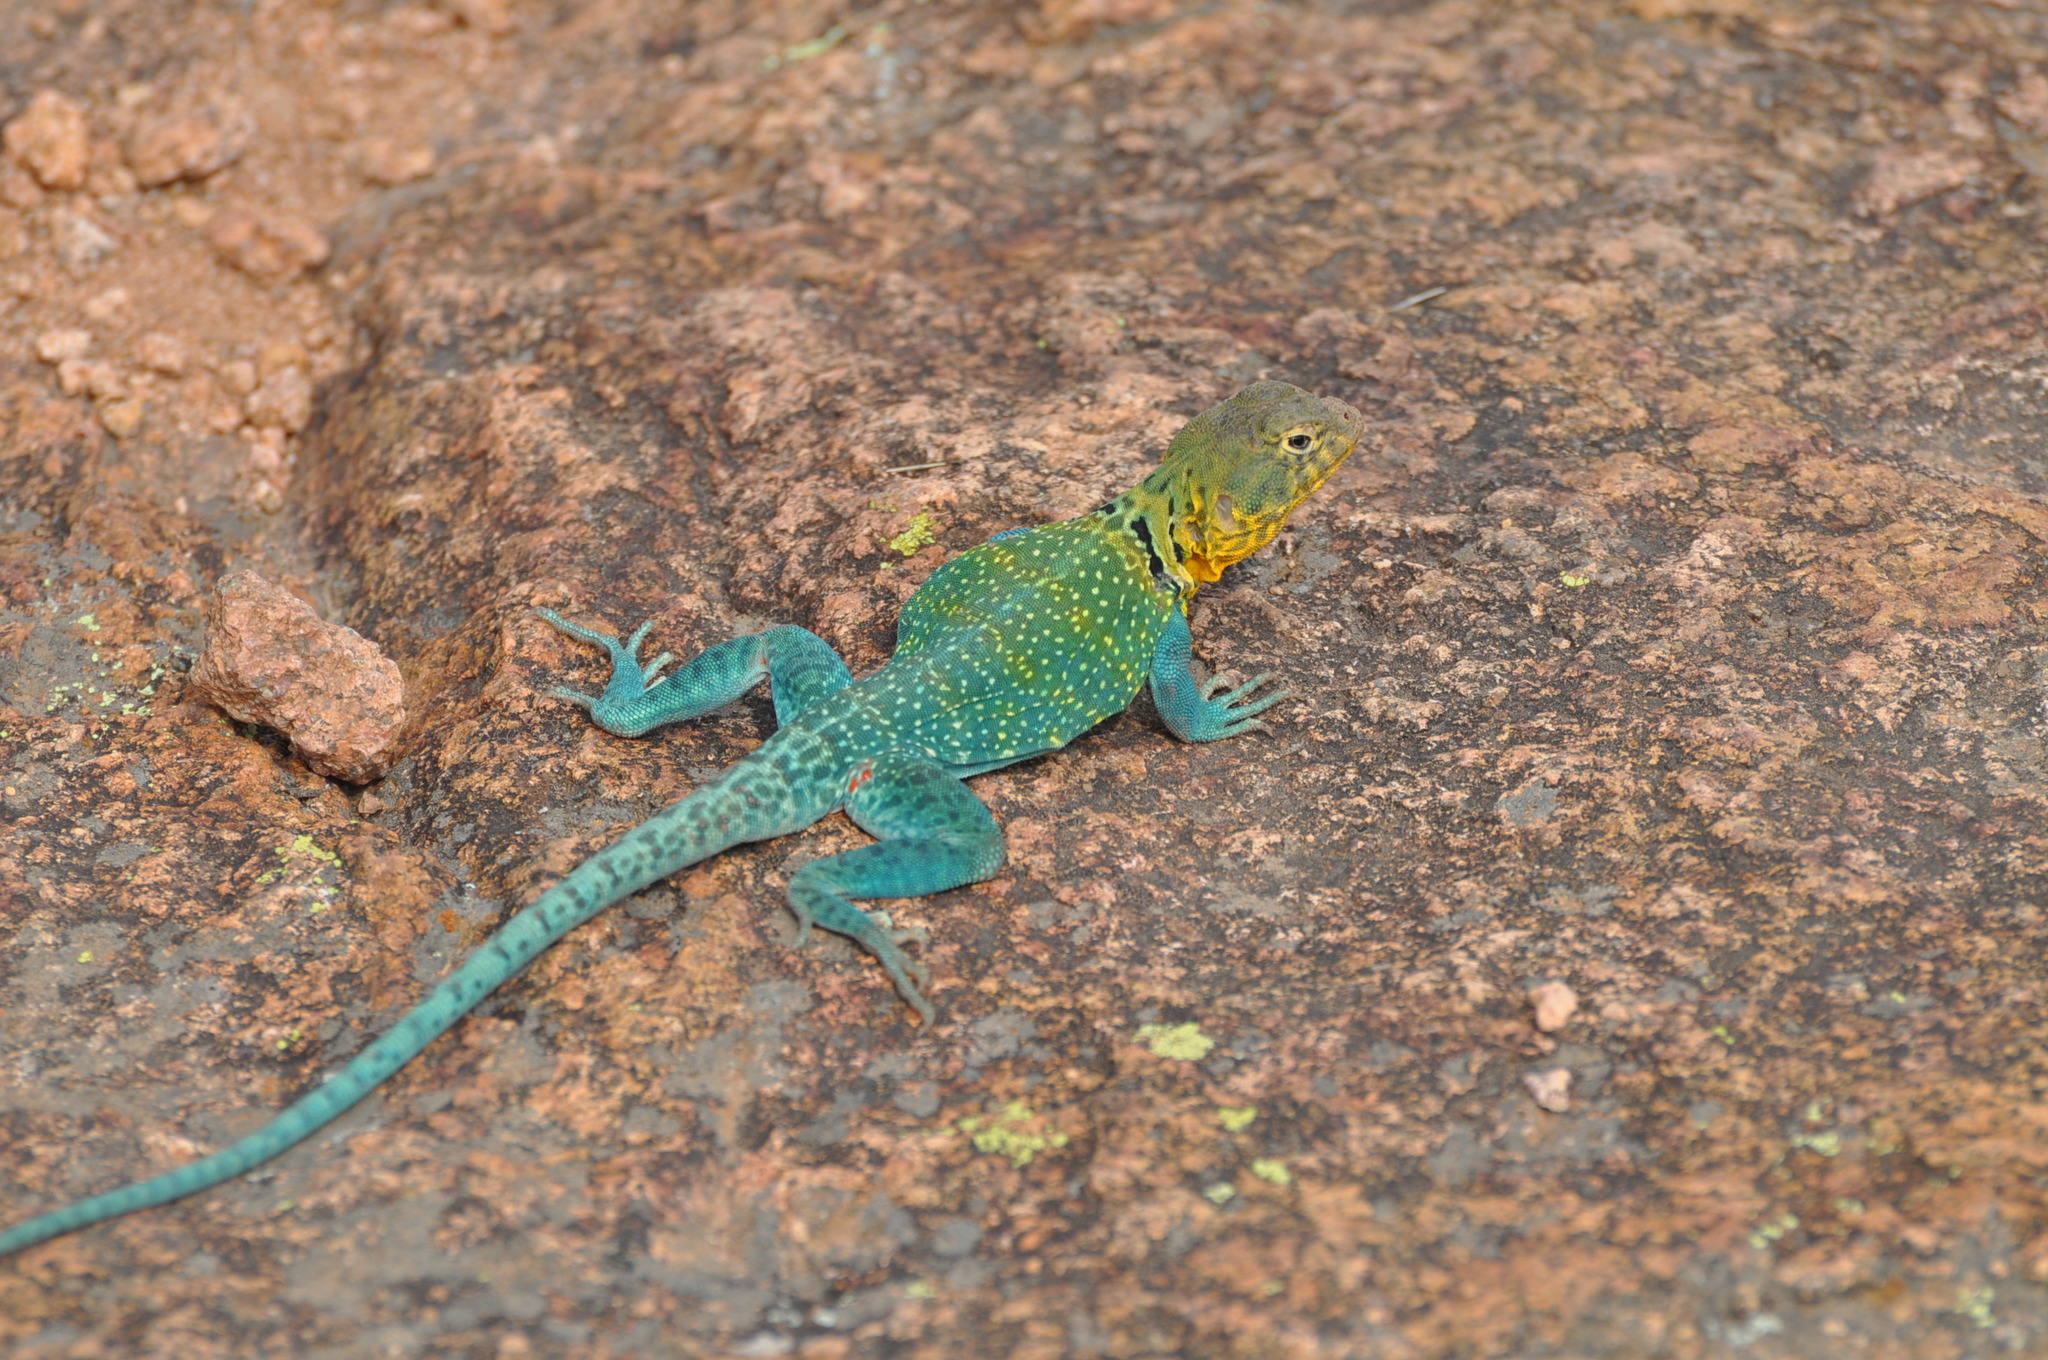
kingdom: Animalia
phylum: Chordata
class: Squamata
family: Crotaphytidae
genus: Crotaphytus
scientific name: Crotaphytus collaris
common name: Collared lizard
